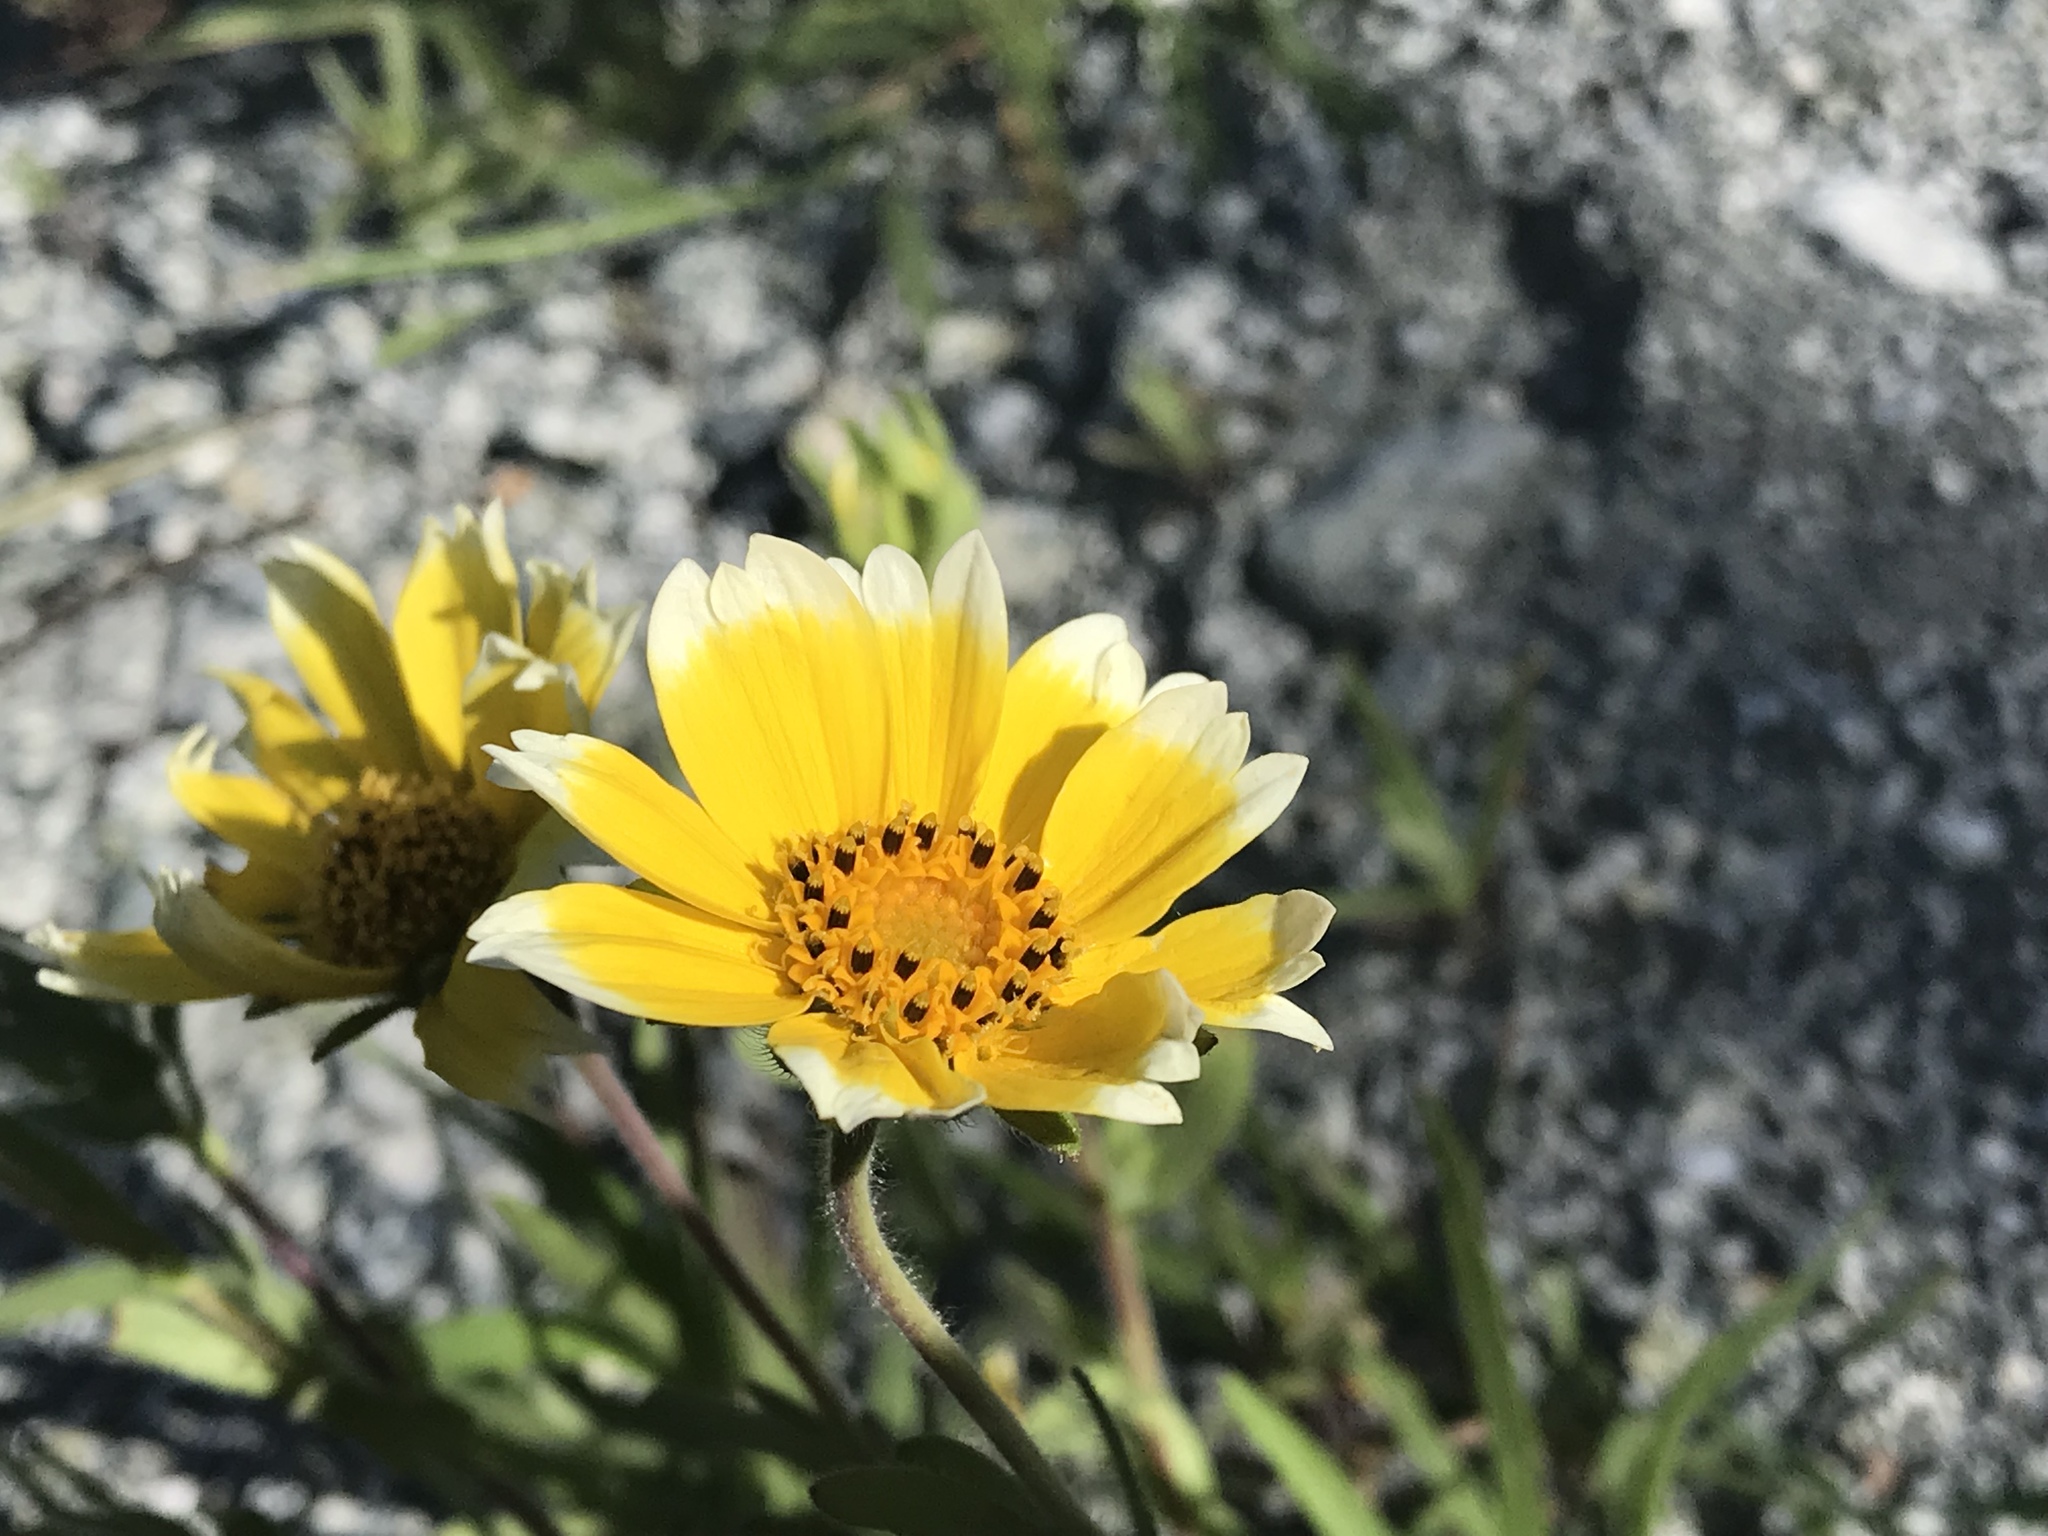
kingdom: Plantae
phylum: Tracheophyta
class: Magnoliopsida
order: Asterales
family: Asteraceae
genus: Layia
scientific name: Layia platyglossa
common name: Tidy-tips
